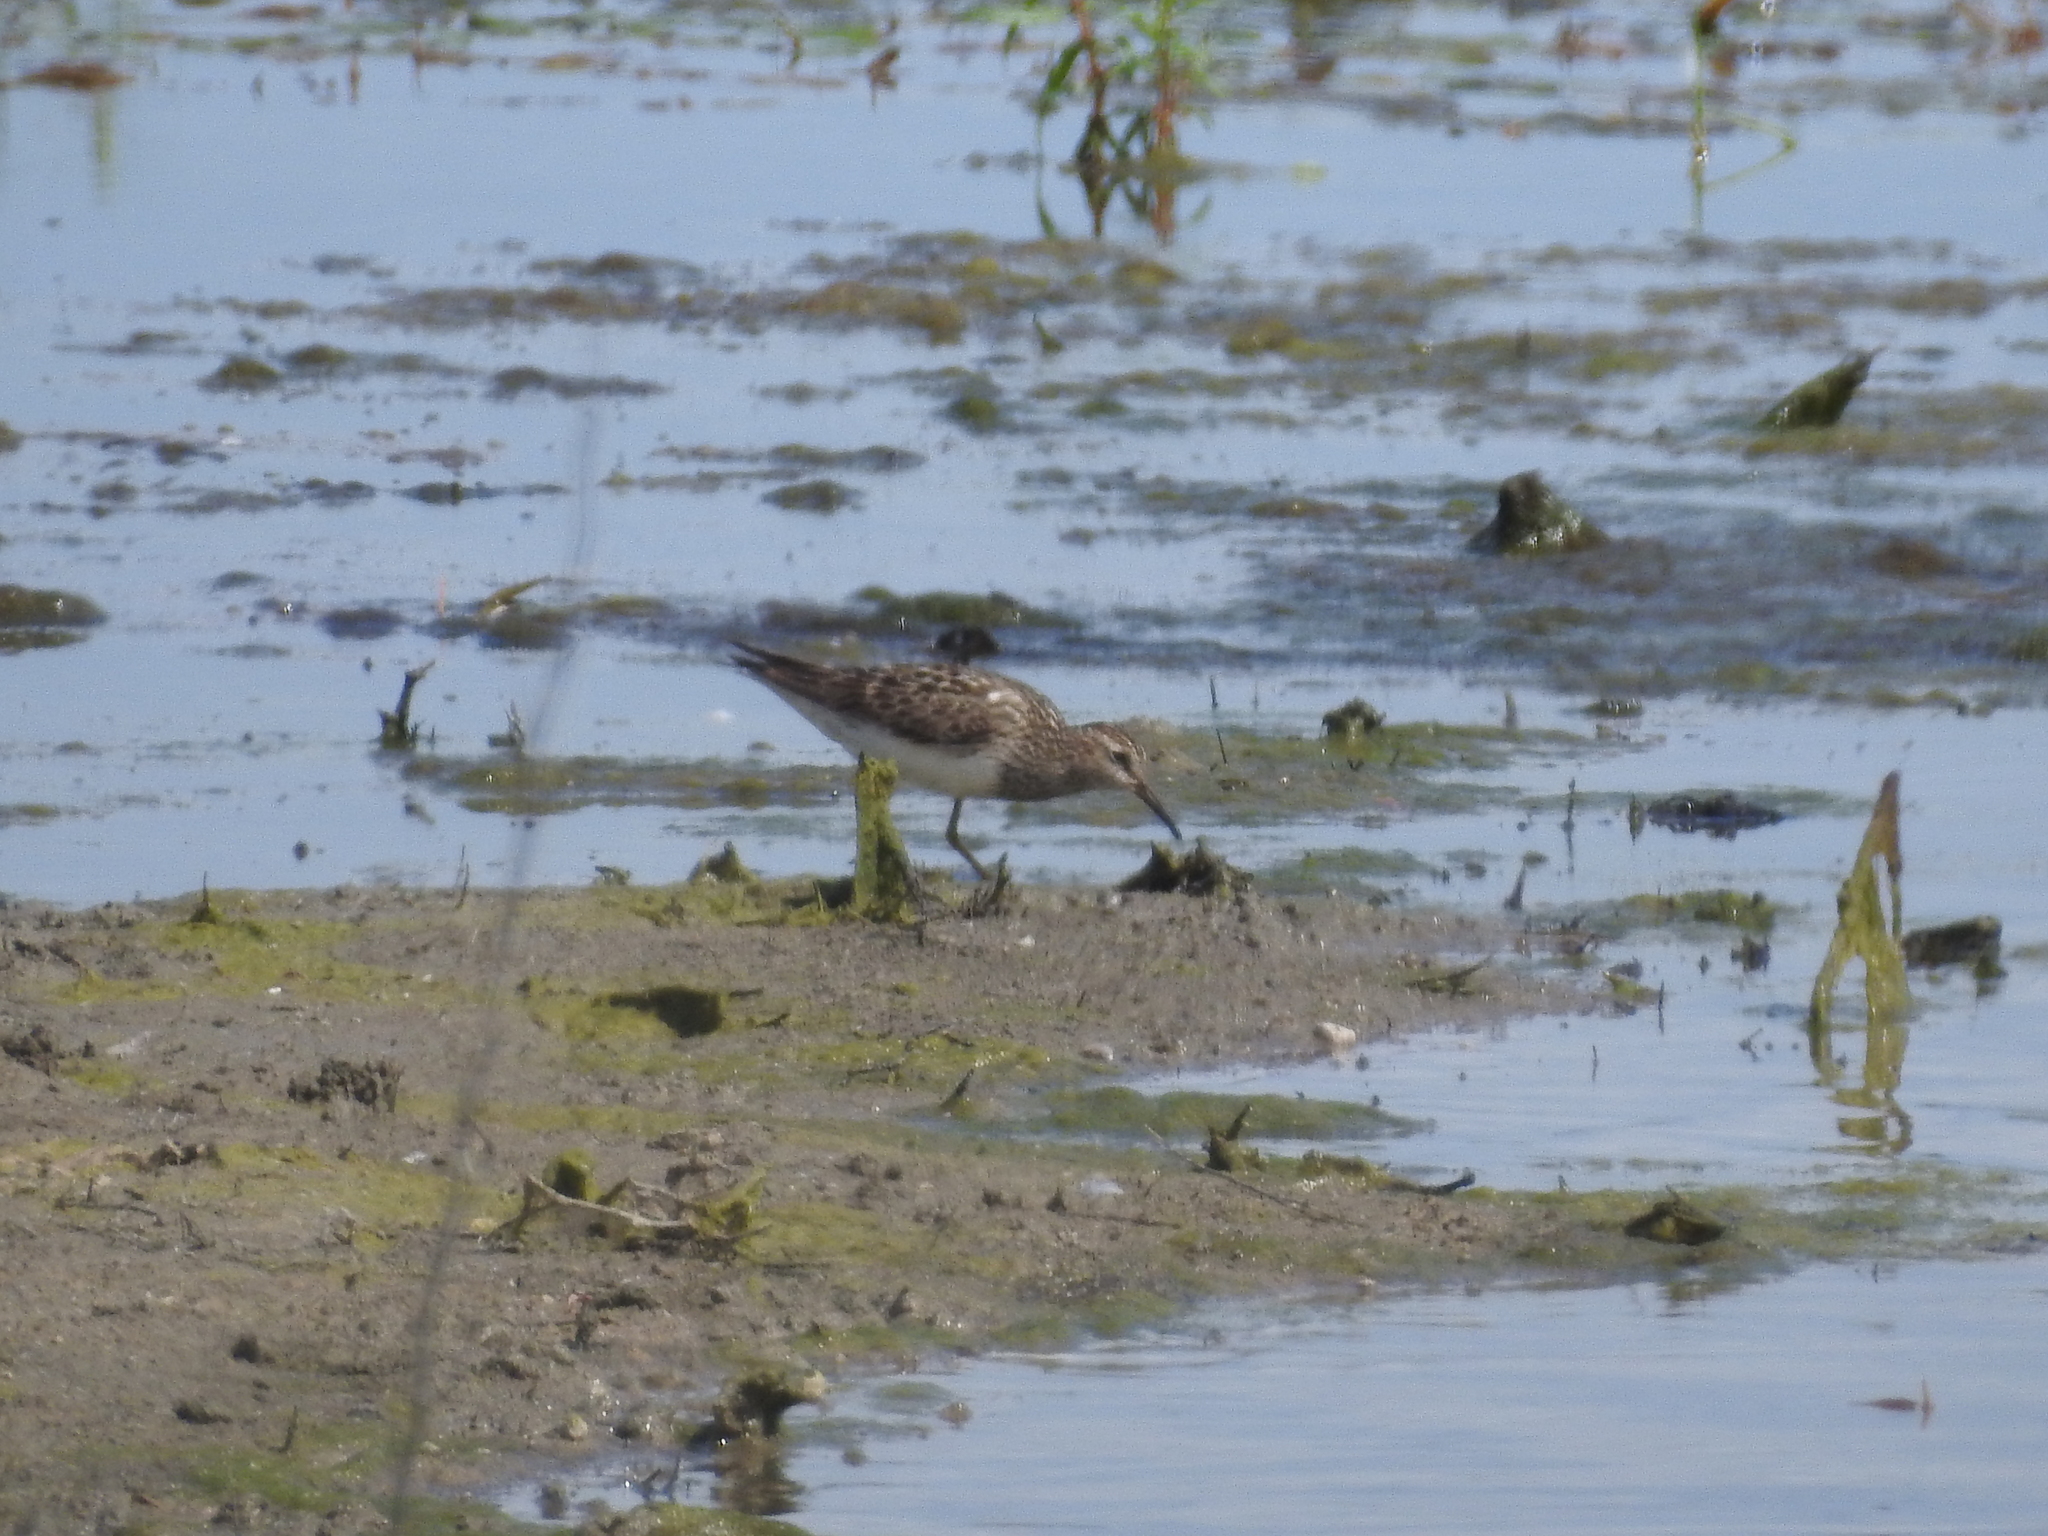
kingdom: Animalia
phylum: Chordata
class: Aves
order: Charadriiformes
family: Scolopacidae
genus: Calidris
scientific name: Calidris melanotos
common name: Pectoral sandpiper
